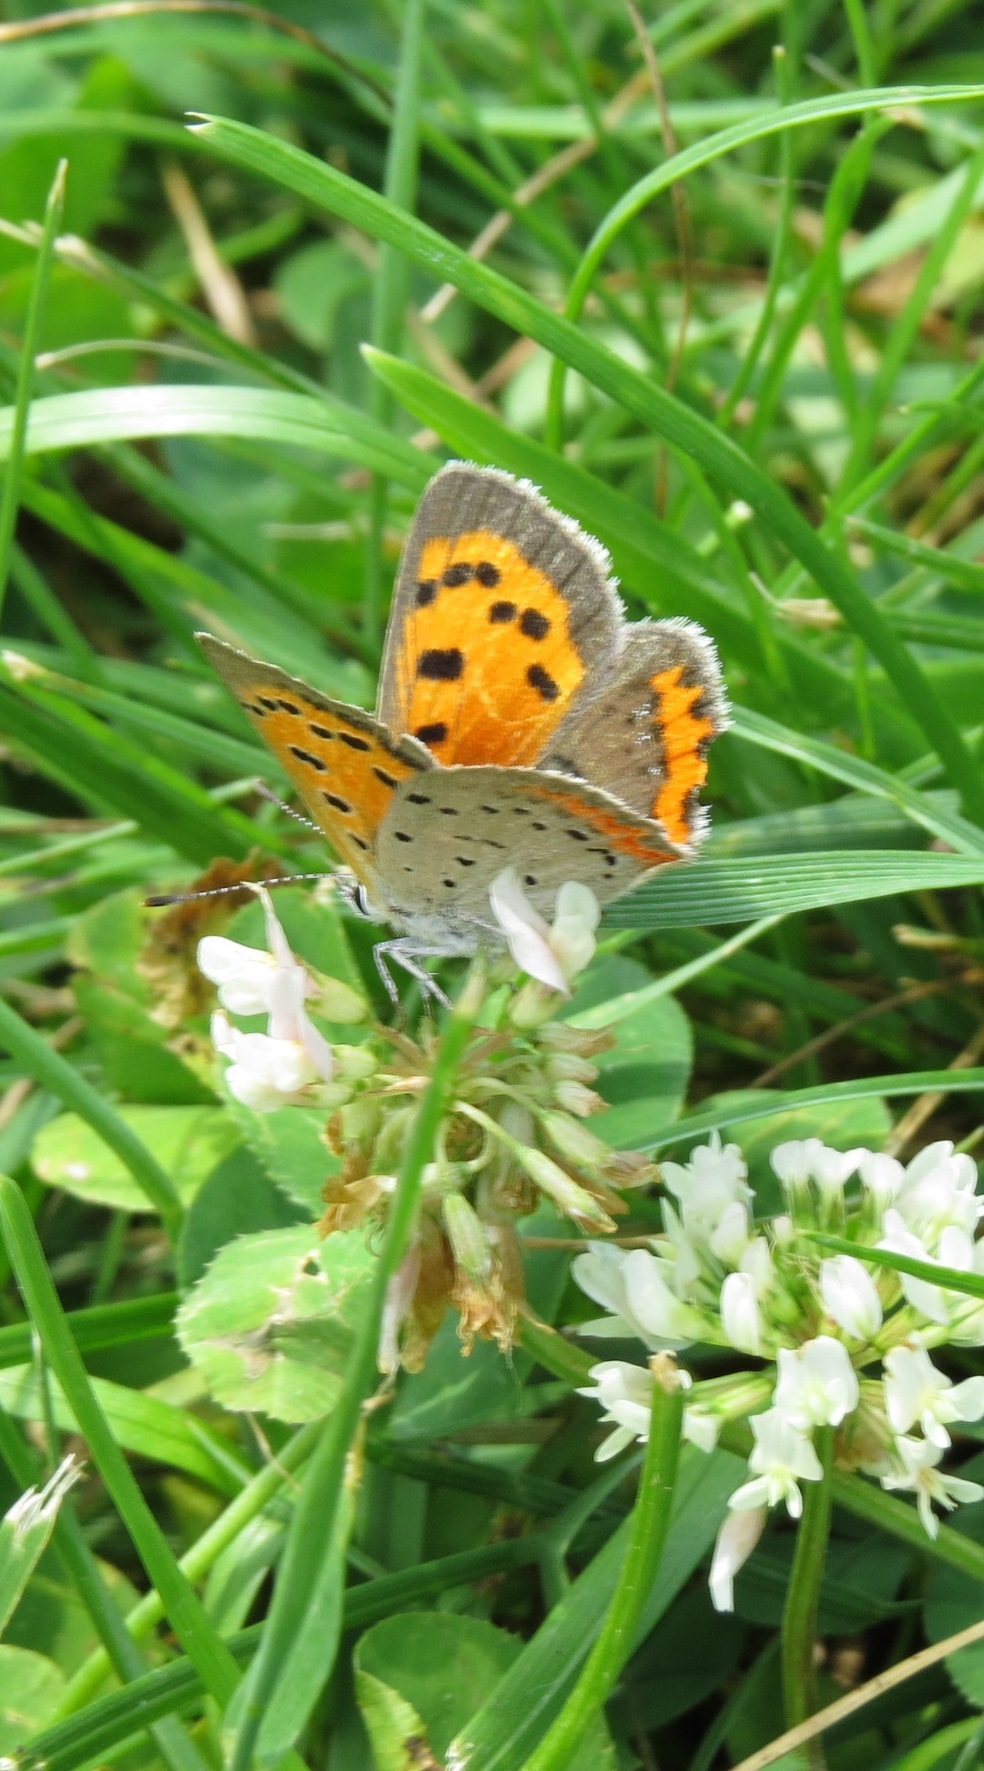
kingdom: Animalia
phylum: Arthropoda
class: Insecta
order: Lepidoptera
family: Lycaenidae
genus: Lycaena
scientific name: Lycaena hypophlaeas
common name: American copper
